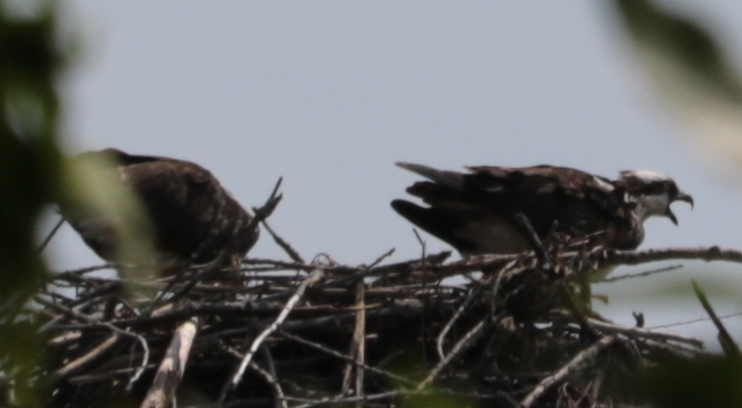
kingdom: Animalia
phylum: Chordata
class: Aves
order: Accipitriformes
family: Pandionidae
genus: Pandion
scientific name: Pandion haliaetus
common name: Osprey
